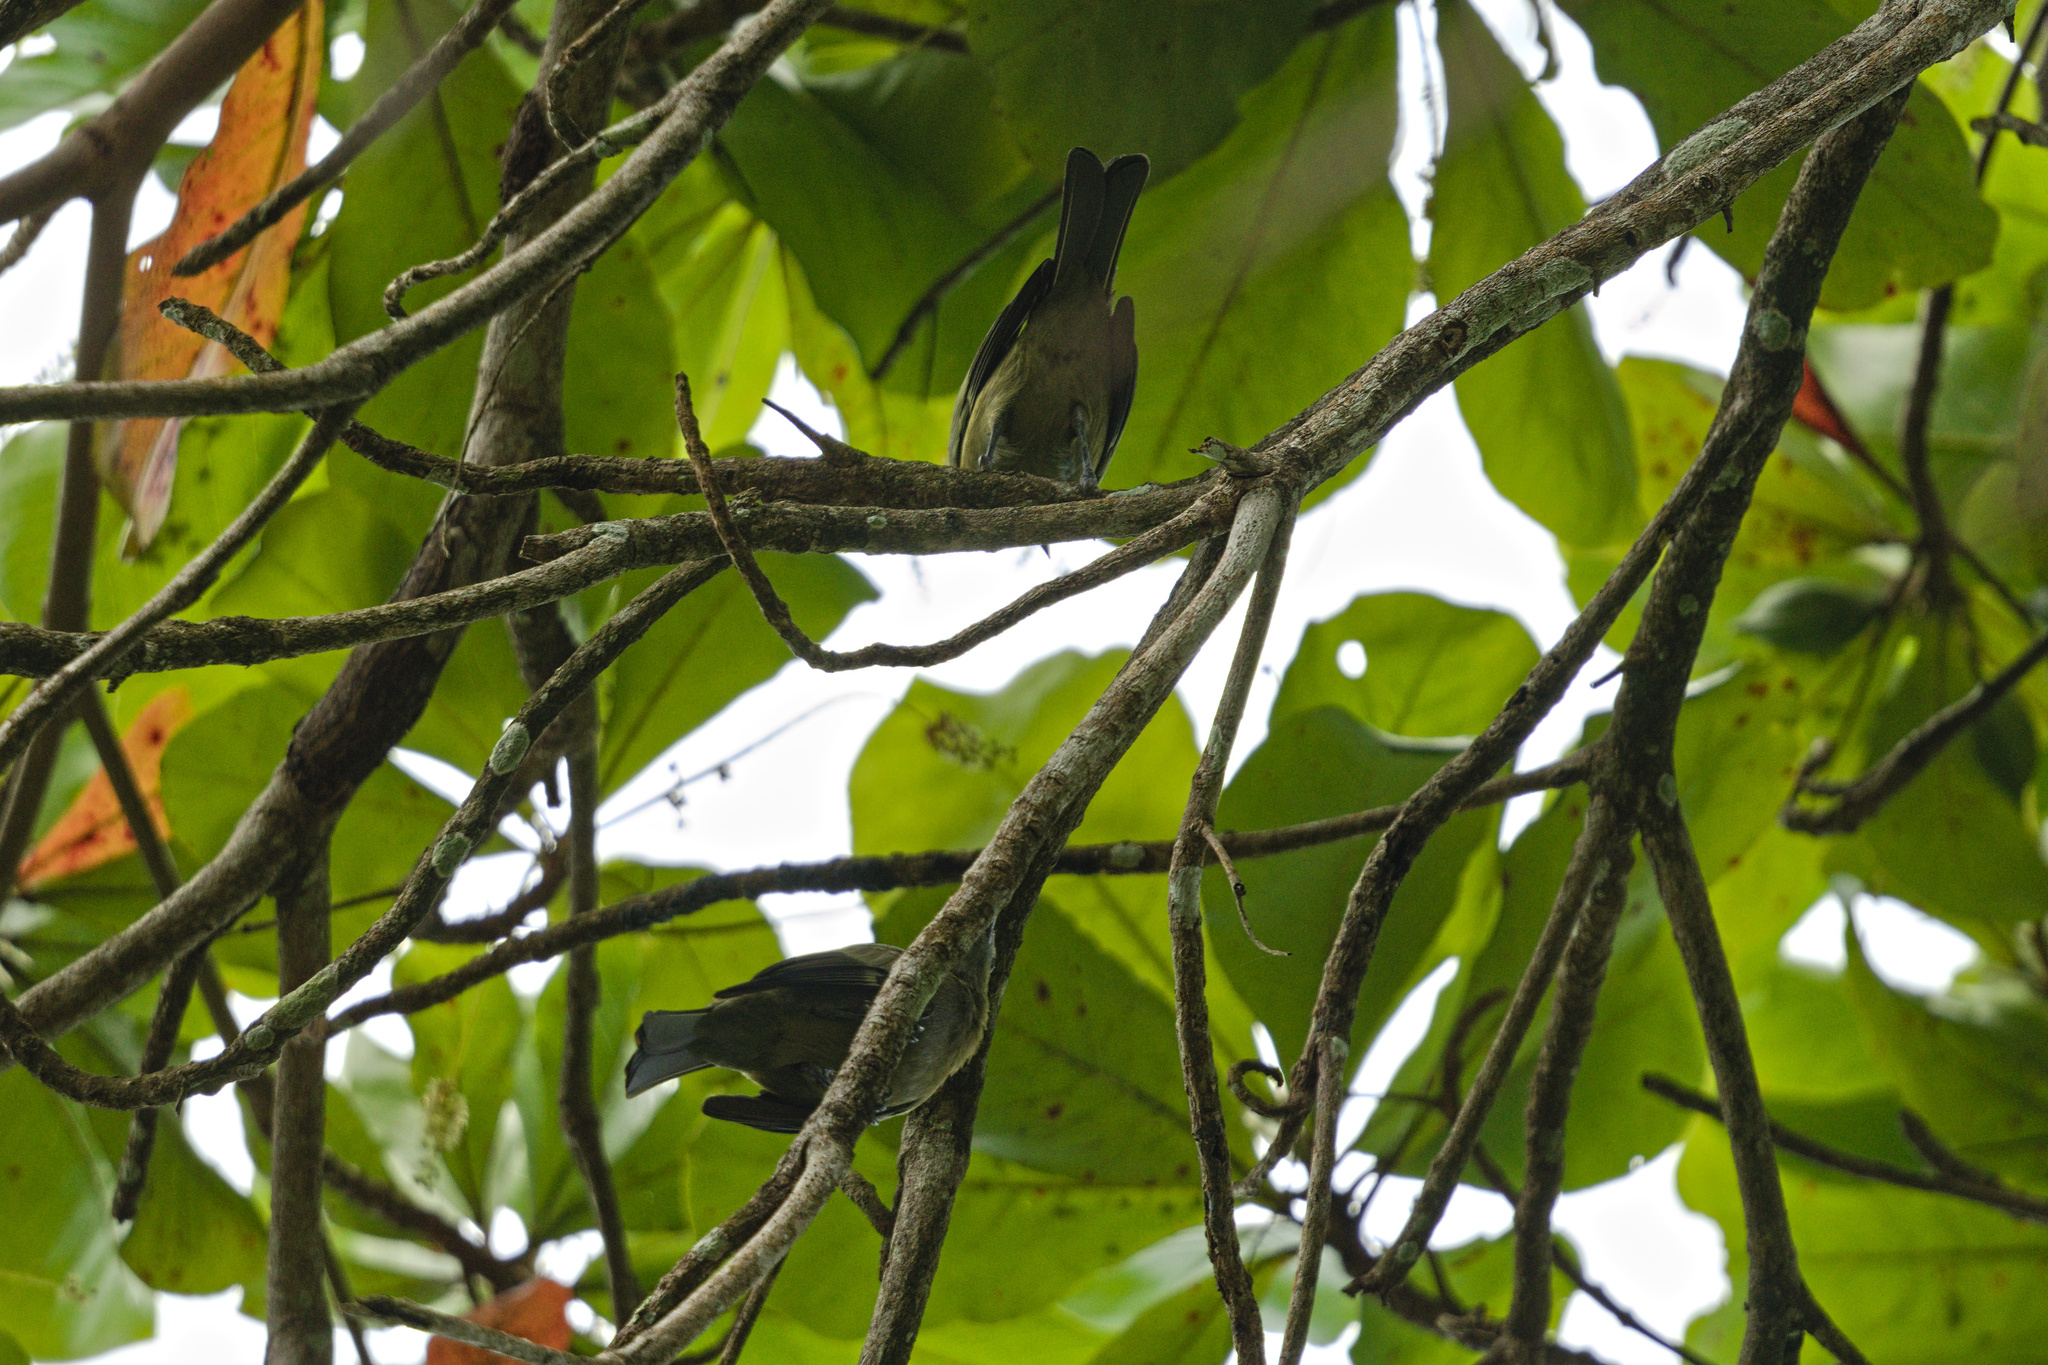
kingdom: Animalia
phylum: Chordata
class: Aves
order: Passeriformes
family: Thraupidae
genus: Thraupis
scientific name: Thraupis palmarum
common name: Palm tanager
